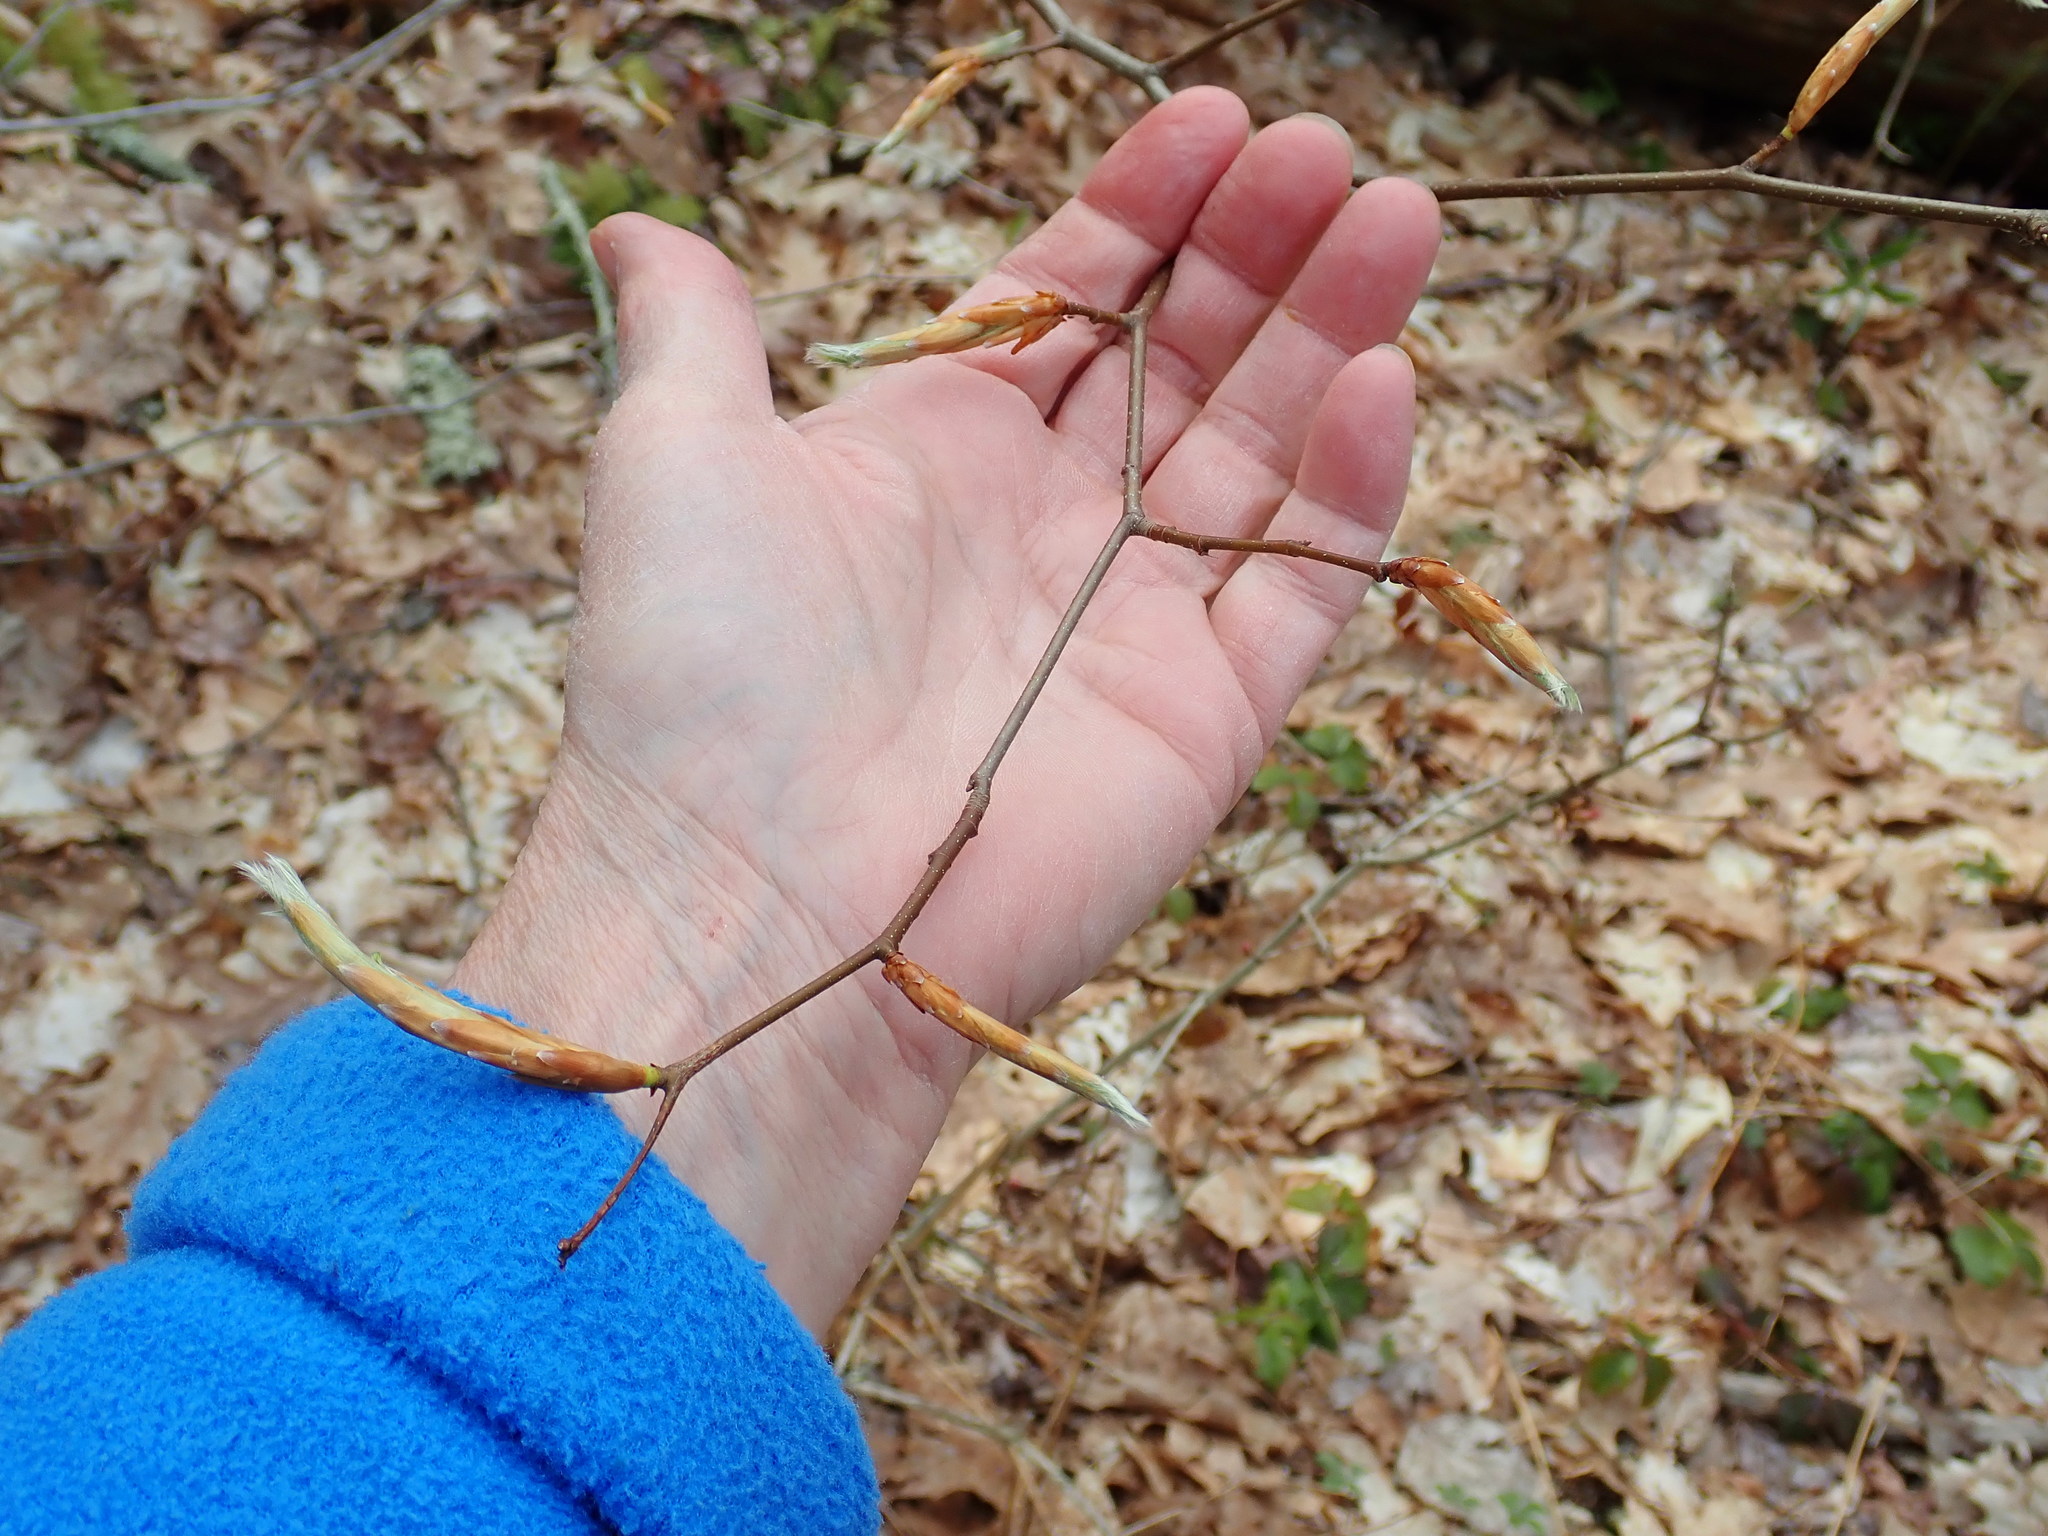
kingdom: Plantae
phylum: Tracheophyta
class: Magnoliopsida
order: Fagales
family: Fagaceae
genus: Fagus
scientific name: Fagus grandifolia
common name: American beech
